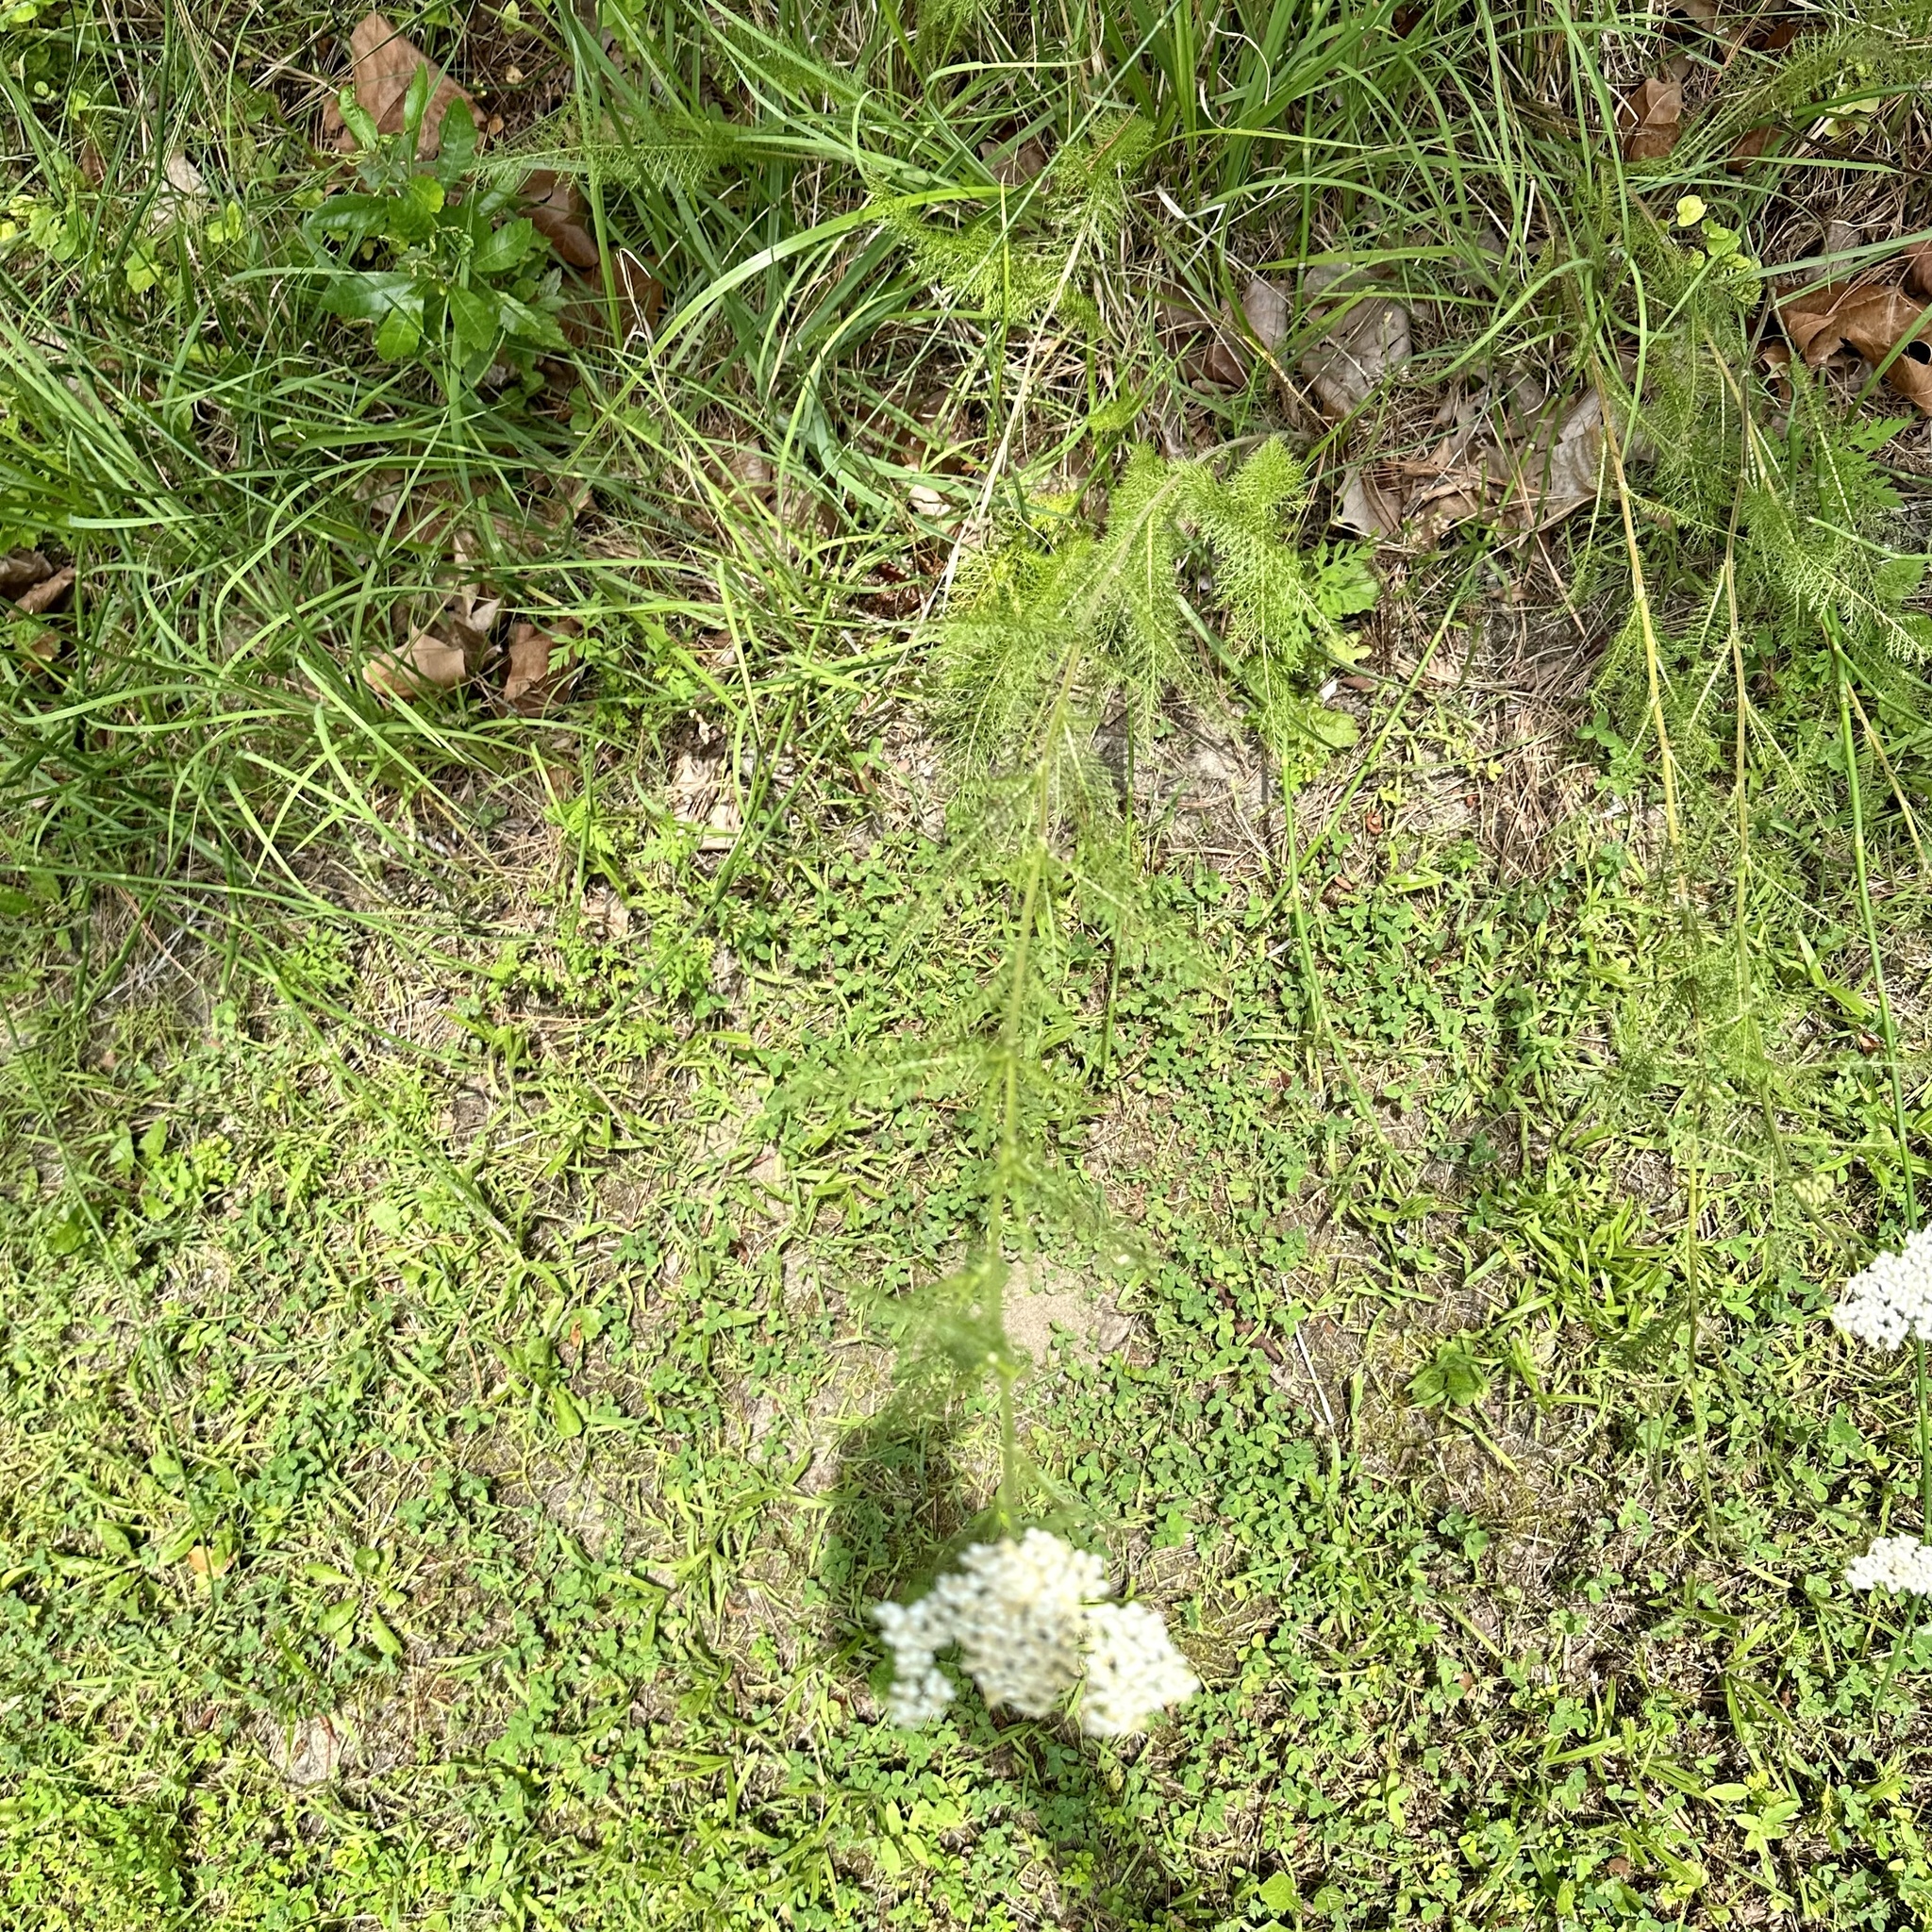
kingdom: Plantae
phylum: Tracheophyta
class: Magnoliopsida
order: Asterales
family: Asteraceae
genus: Achillea
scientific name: Achillea millefolium
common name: Yarrow
